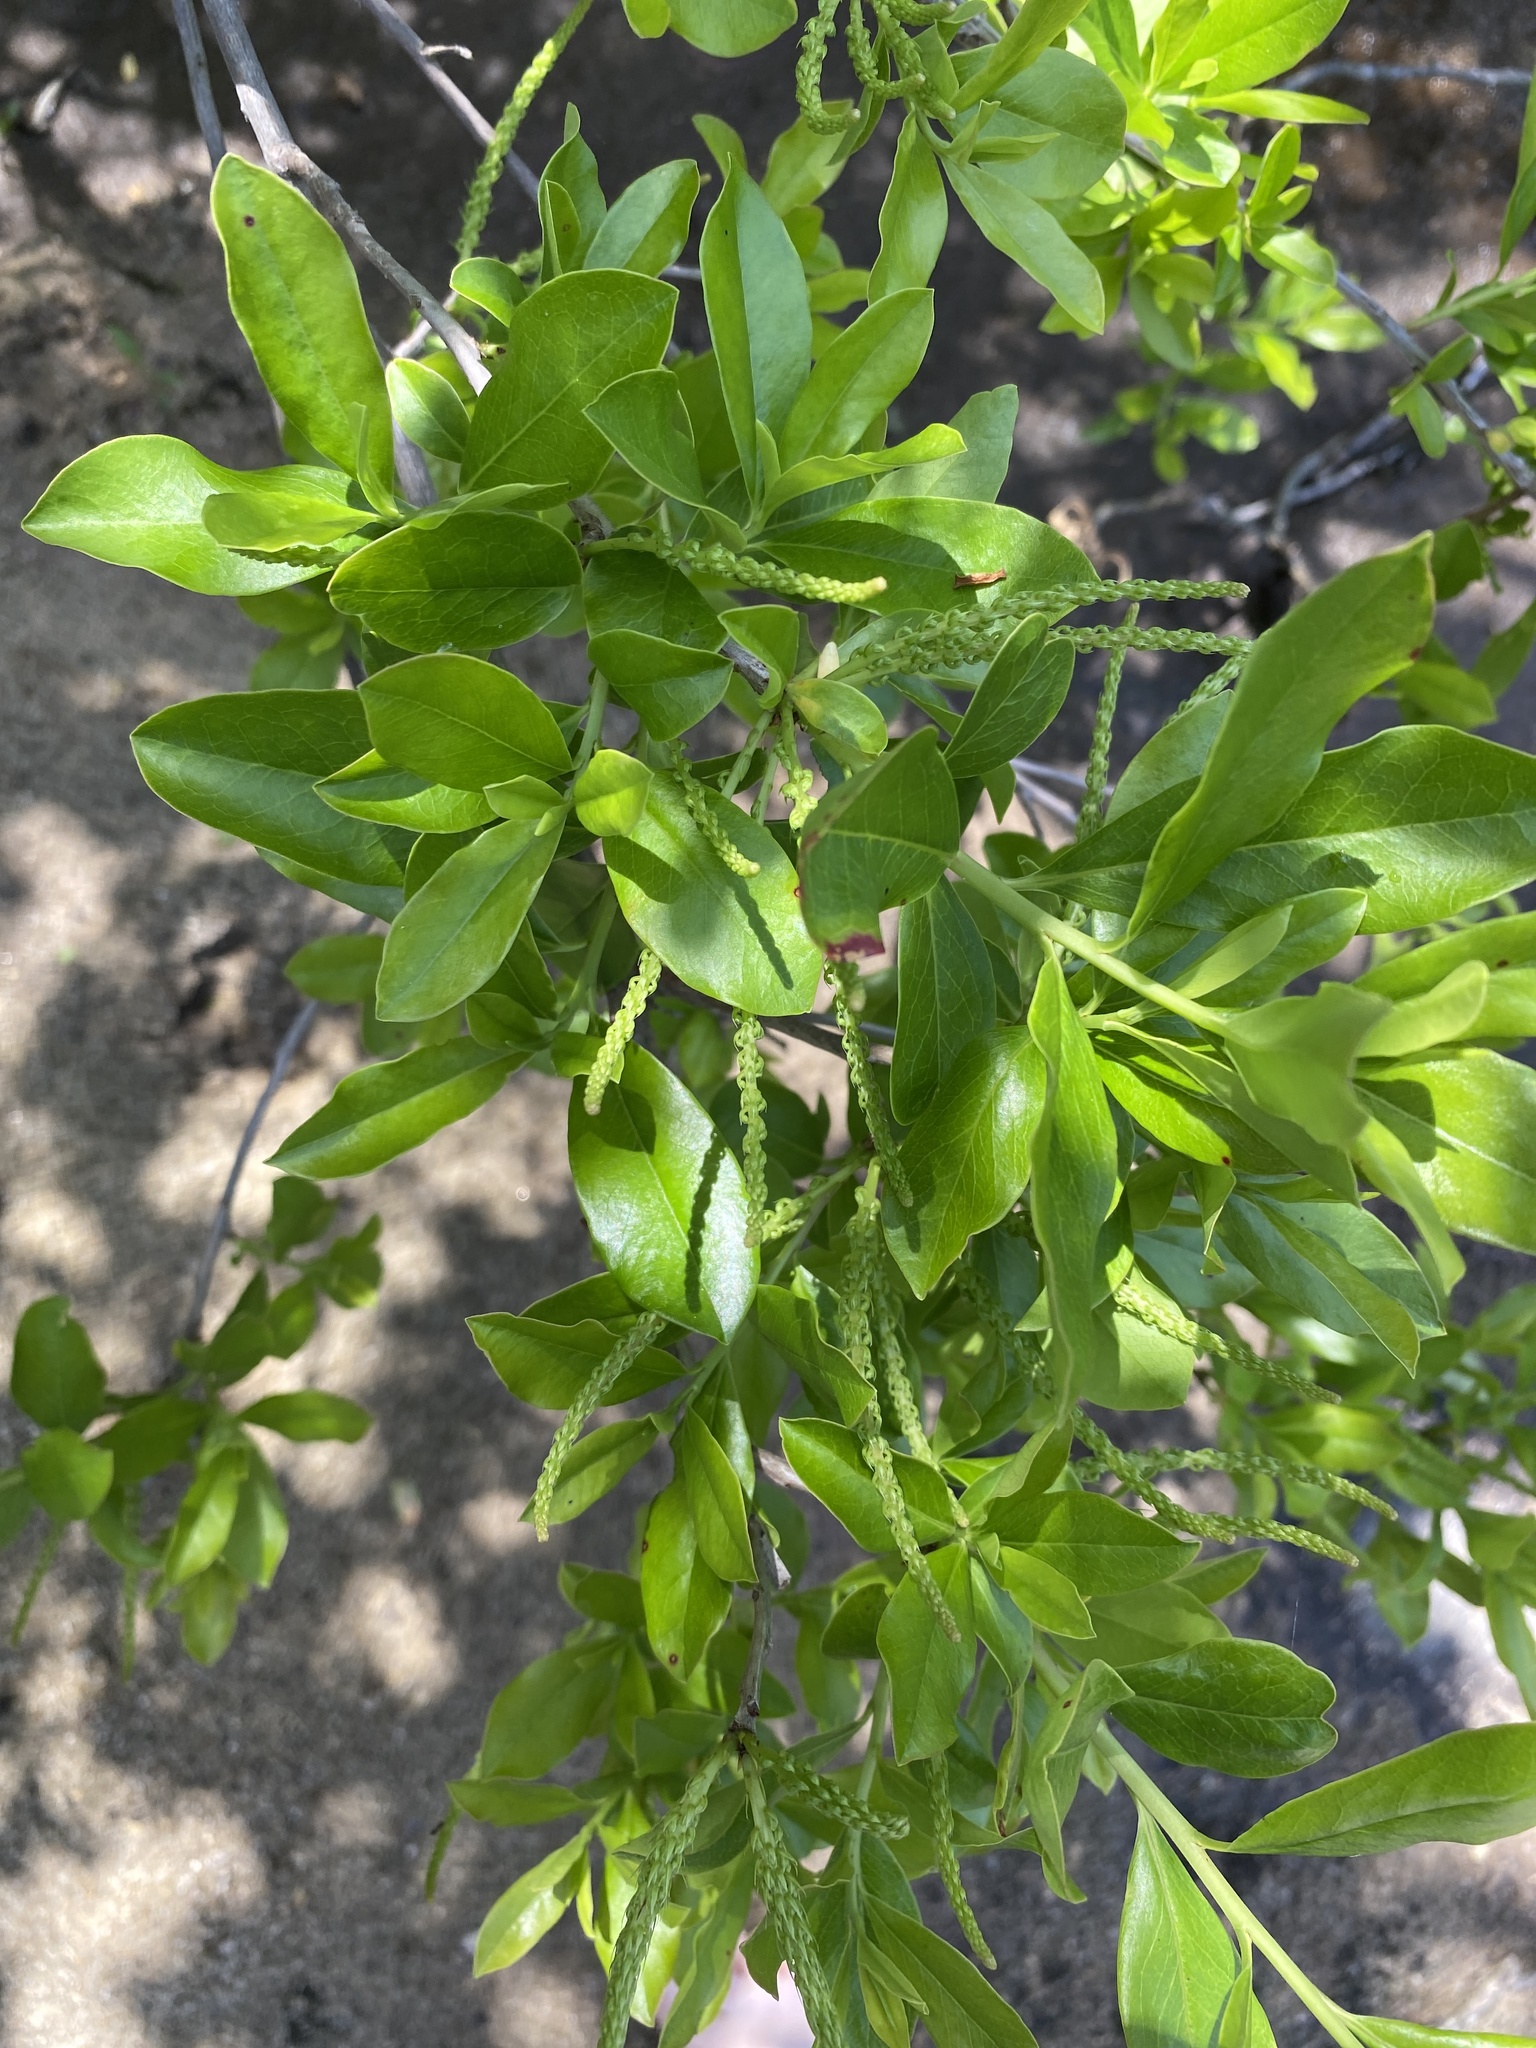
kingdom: Plantae
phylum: Tracheophyta
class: Magnoliopsida
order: Ericales
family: Cyrillaceae
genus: Cyrilla
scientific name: Cyrilla racemiflora
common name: Black titi
